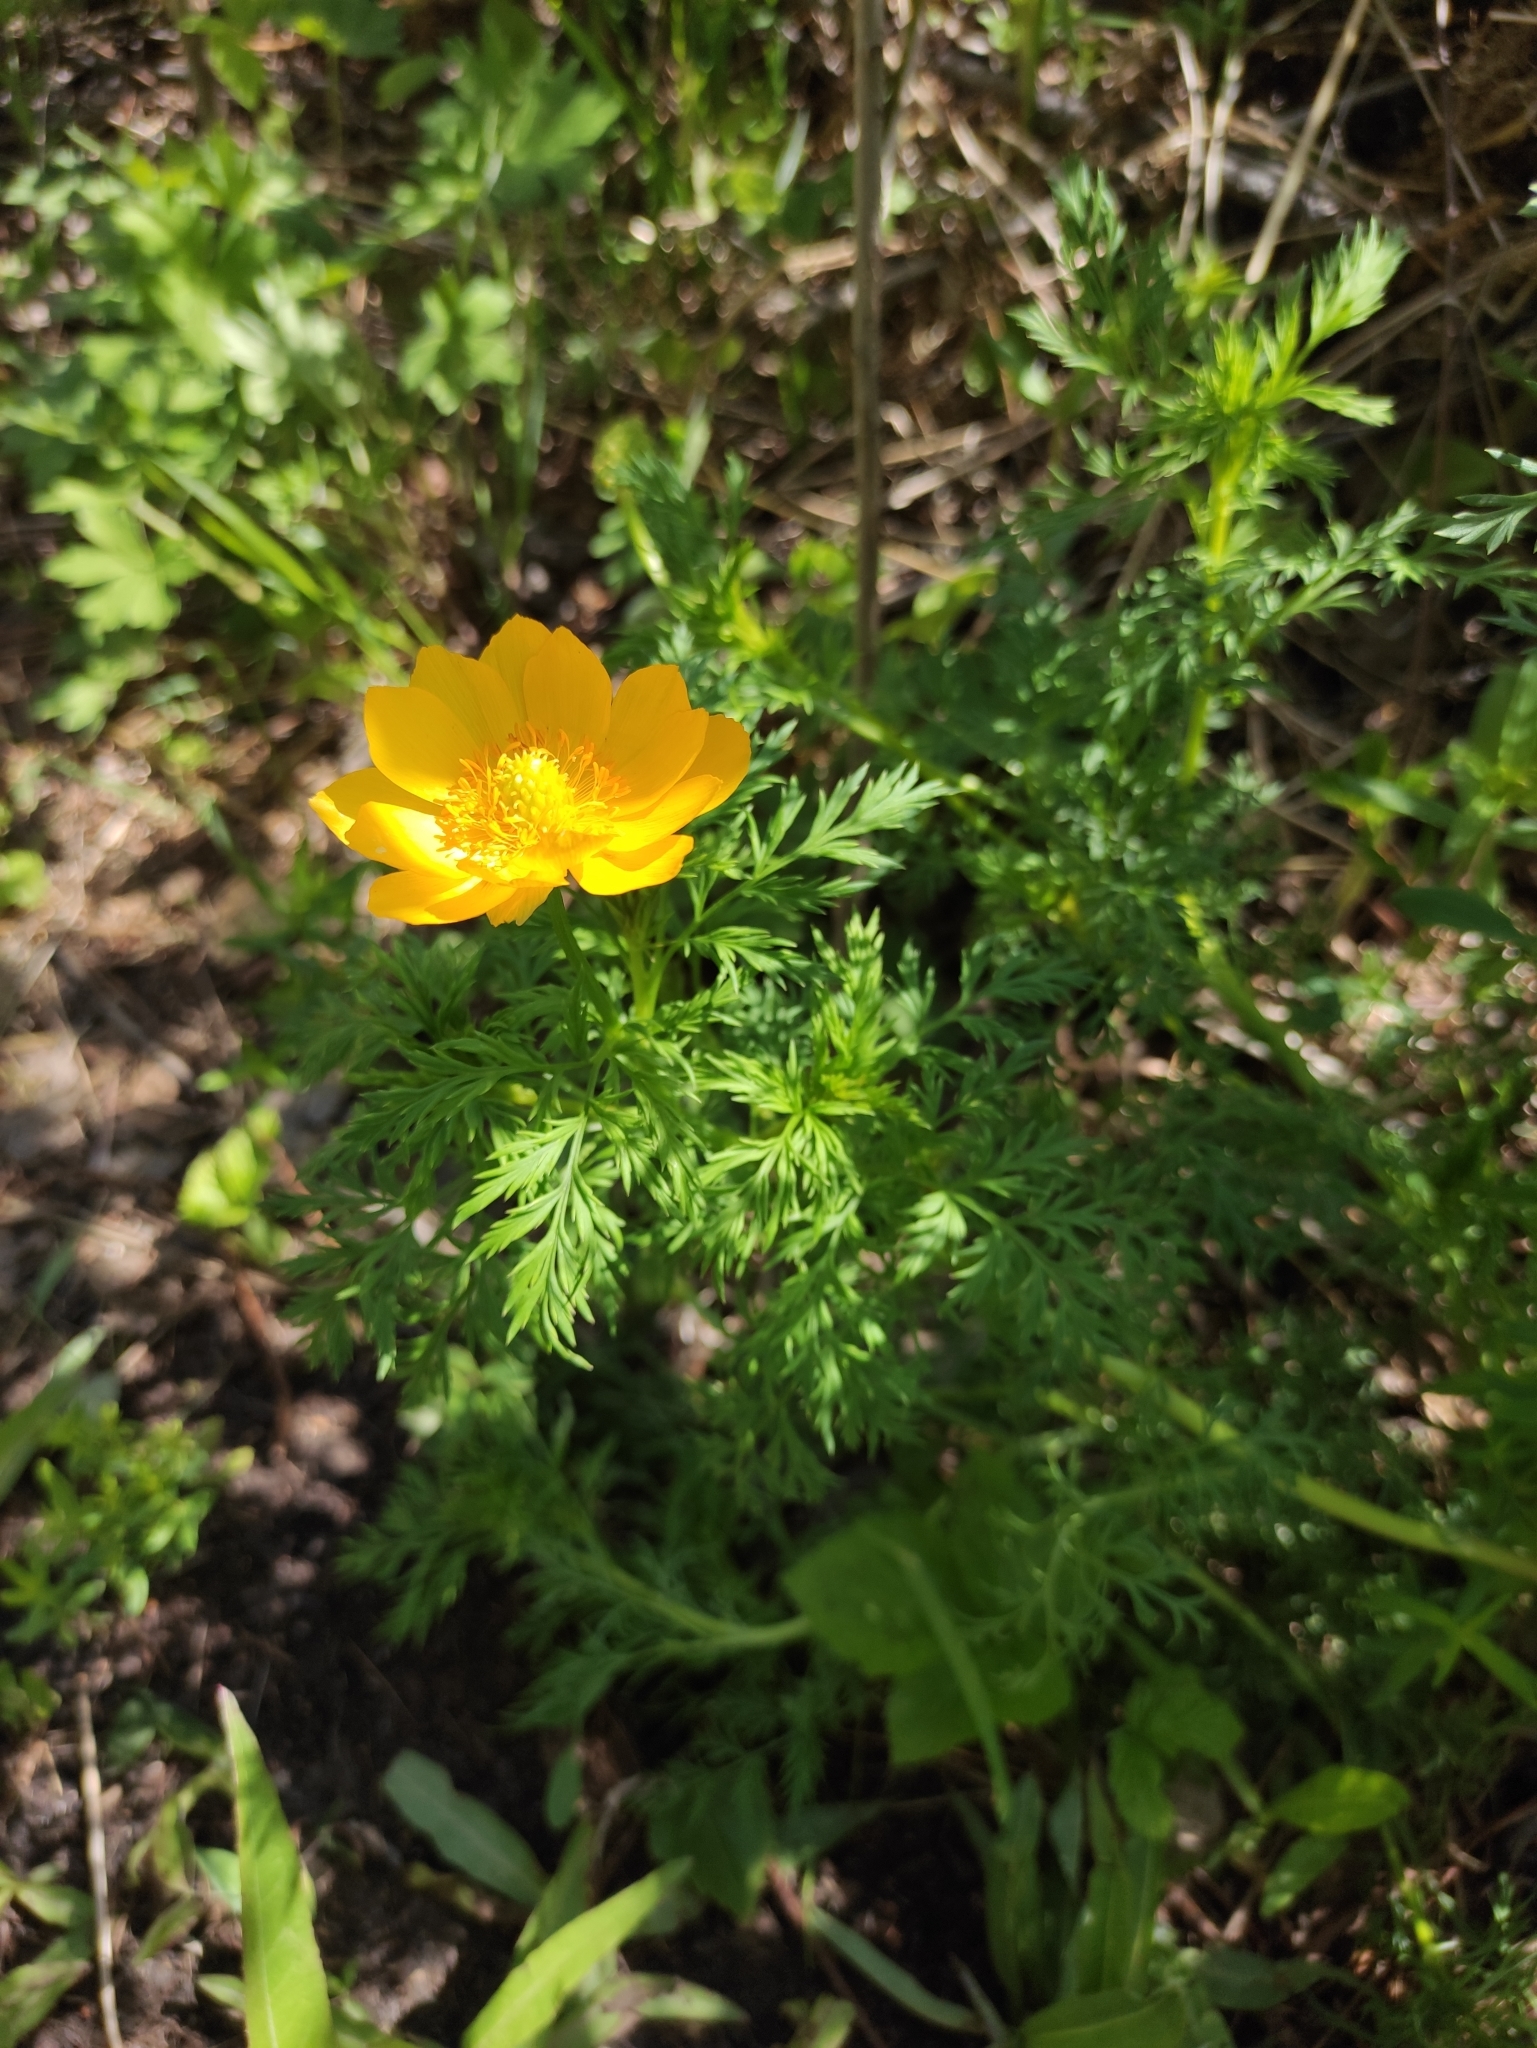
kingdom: Plantae
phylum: Tracheophyta
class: Magnoliopsida
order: Ranunculales
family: Ranunculaceae
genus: Adonis
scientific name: Adonis
